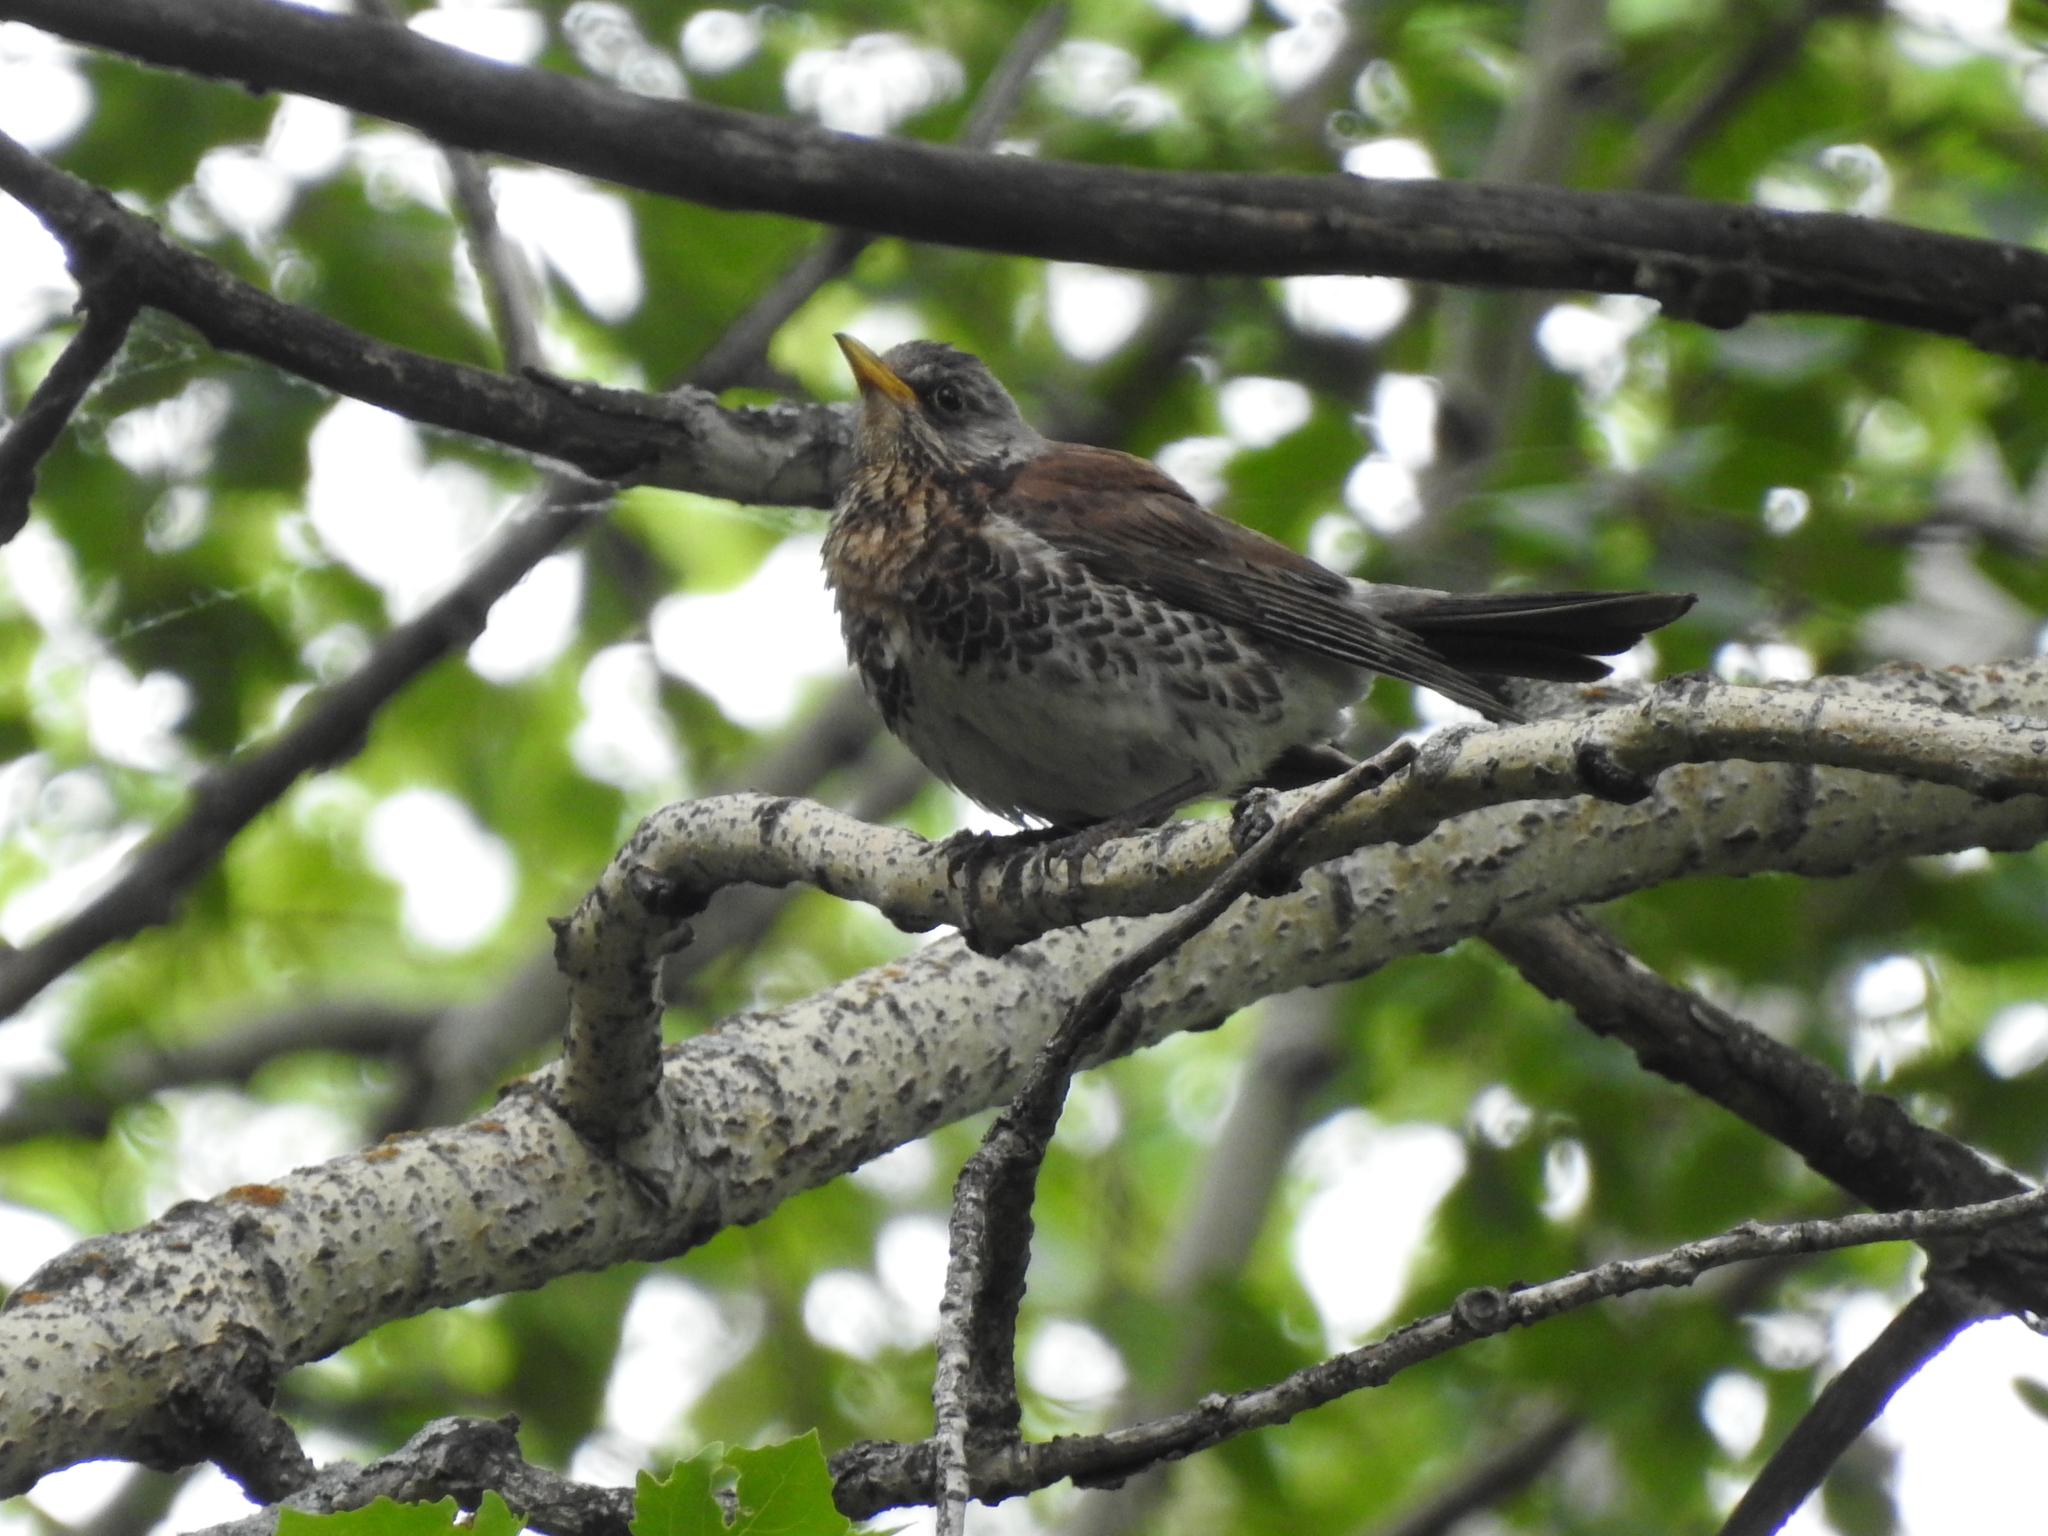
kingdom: Animalia
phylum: Chordata
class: Aves
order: Passeriformes
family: Turdidae
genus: Turdus
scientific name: Turdus pilaris
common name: Fieldfare
